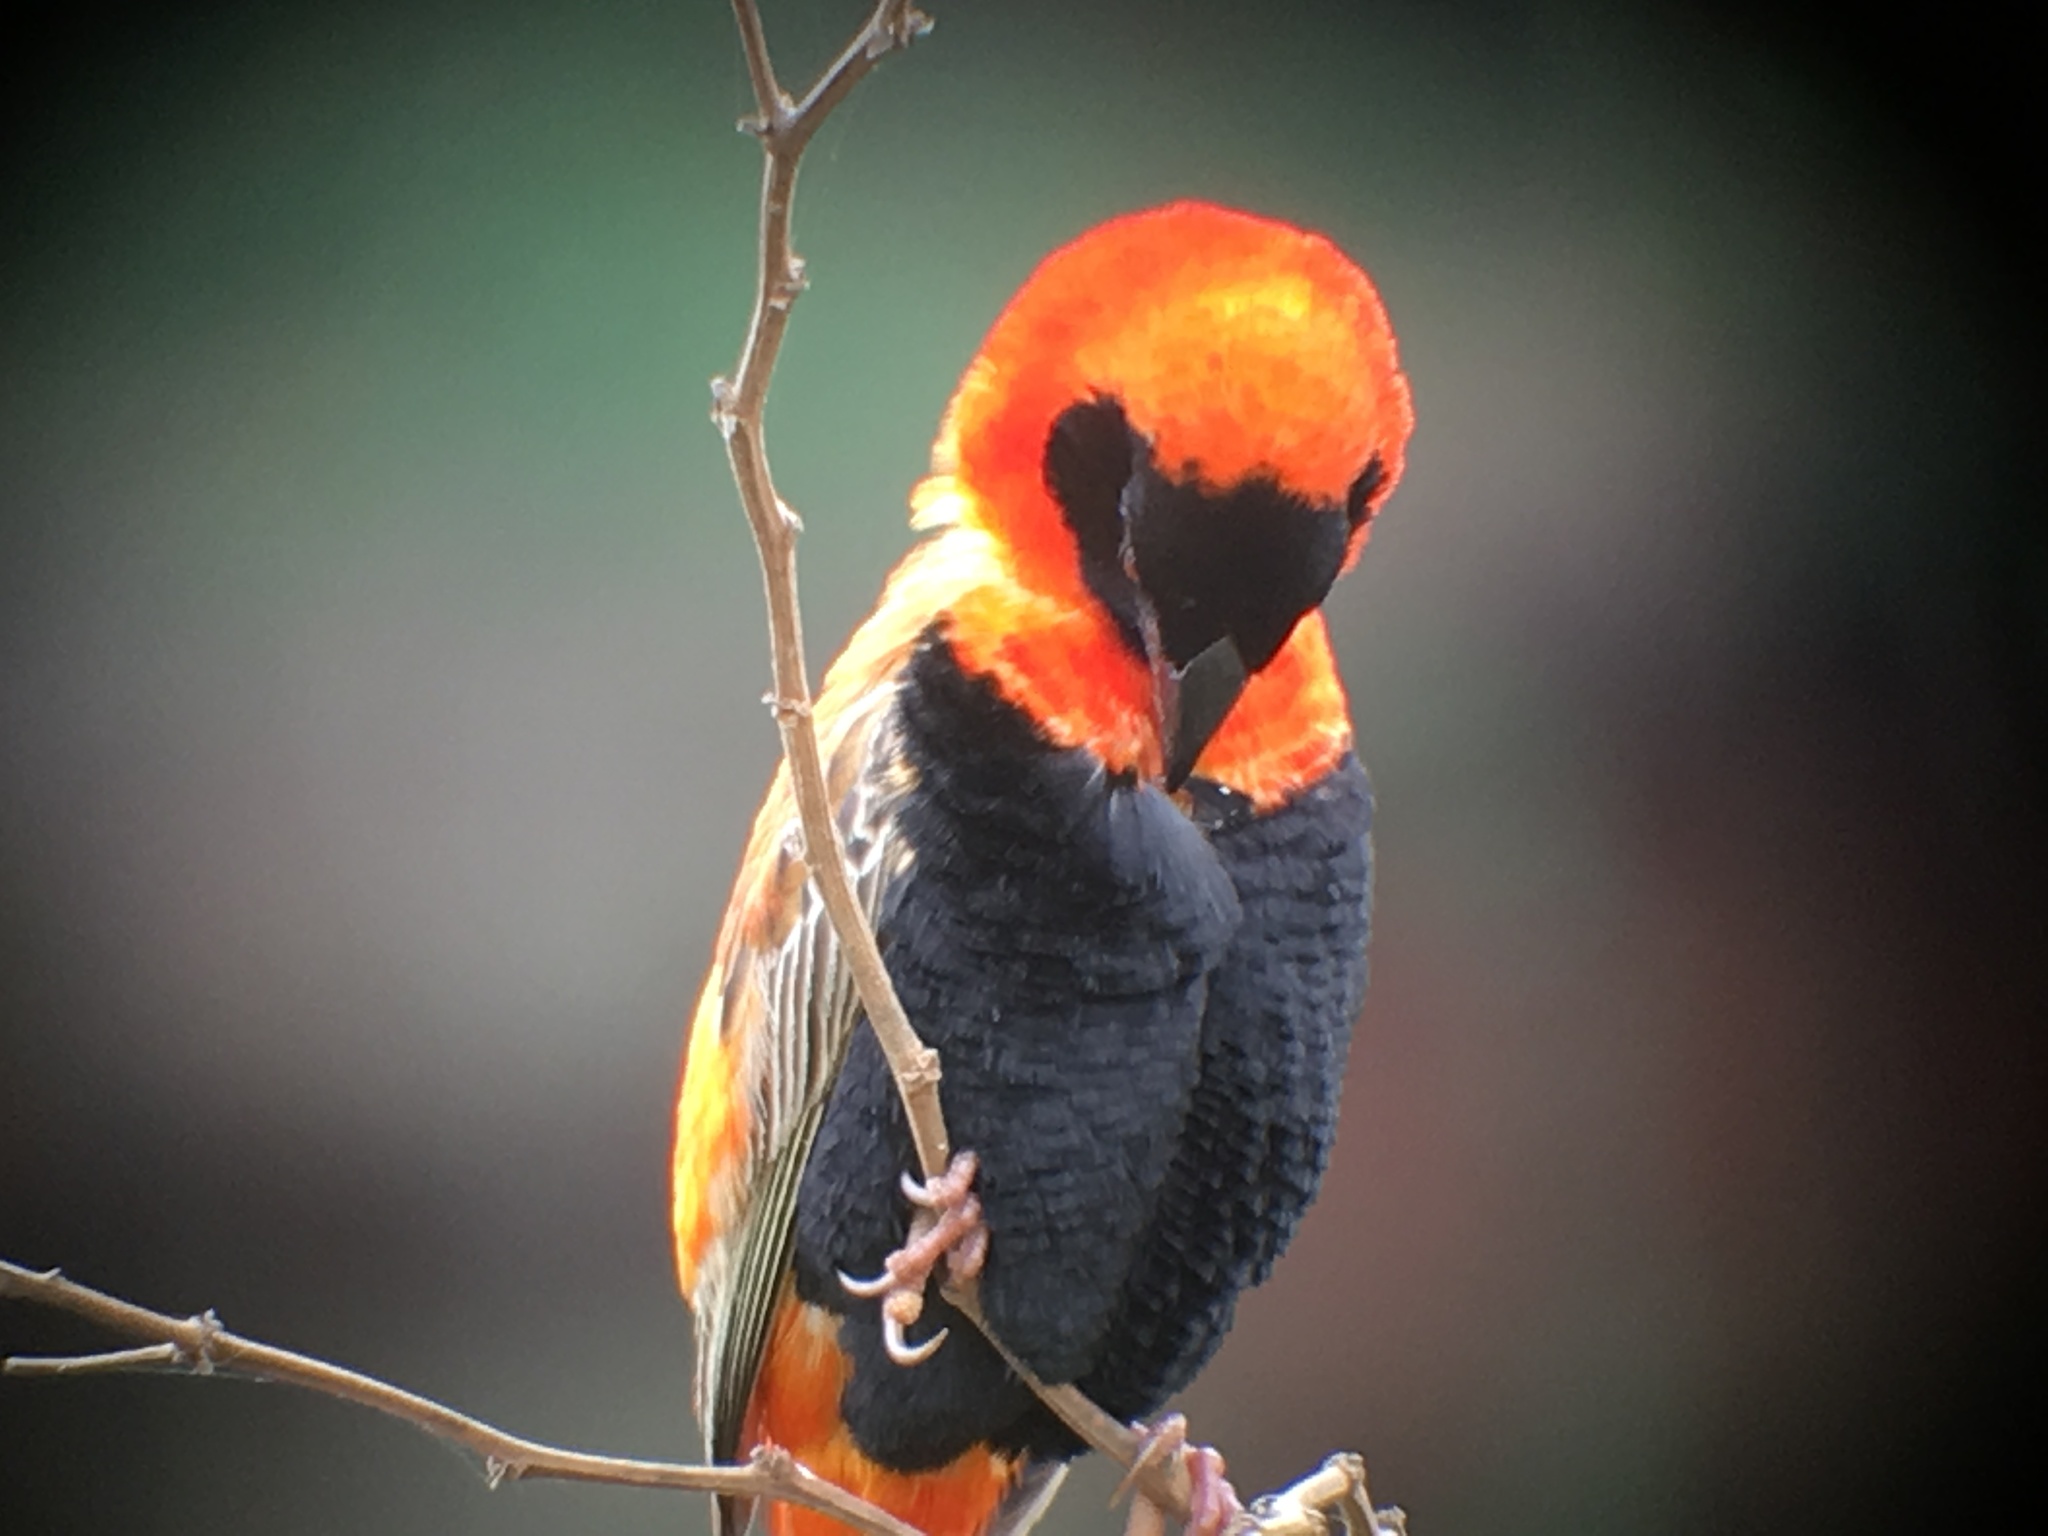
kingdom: Animalia
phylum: Chordata
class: Aves
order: Passeriformes
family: Ploceidae
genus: Euplectes
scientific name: Euplectes orix
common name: Southern red bishop
